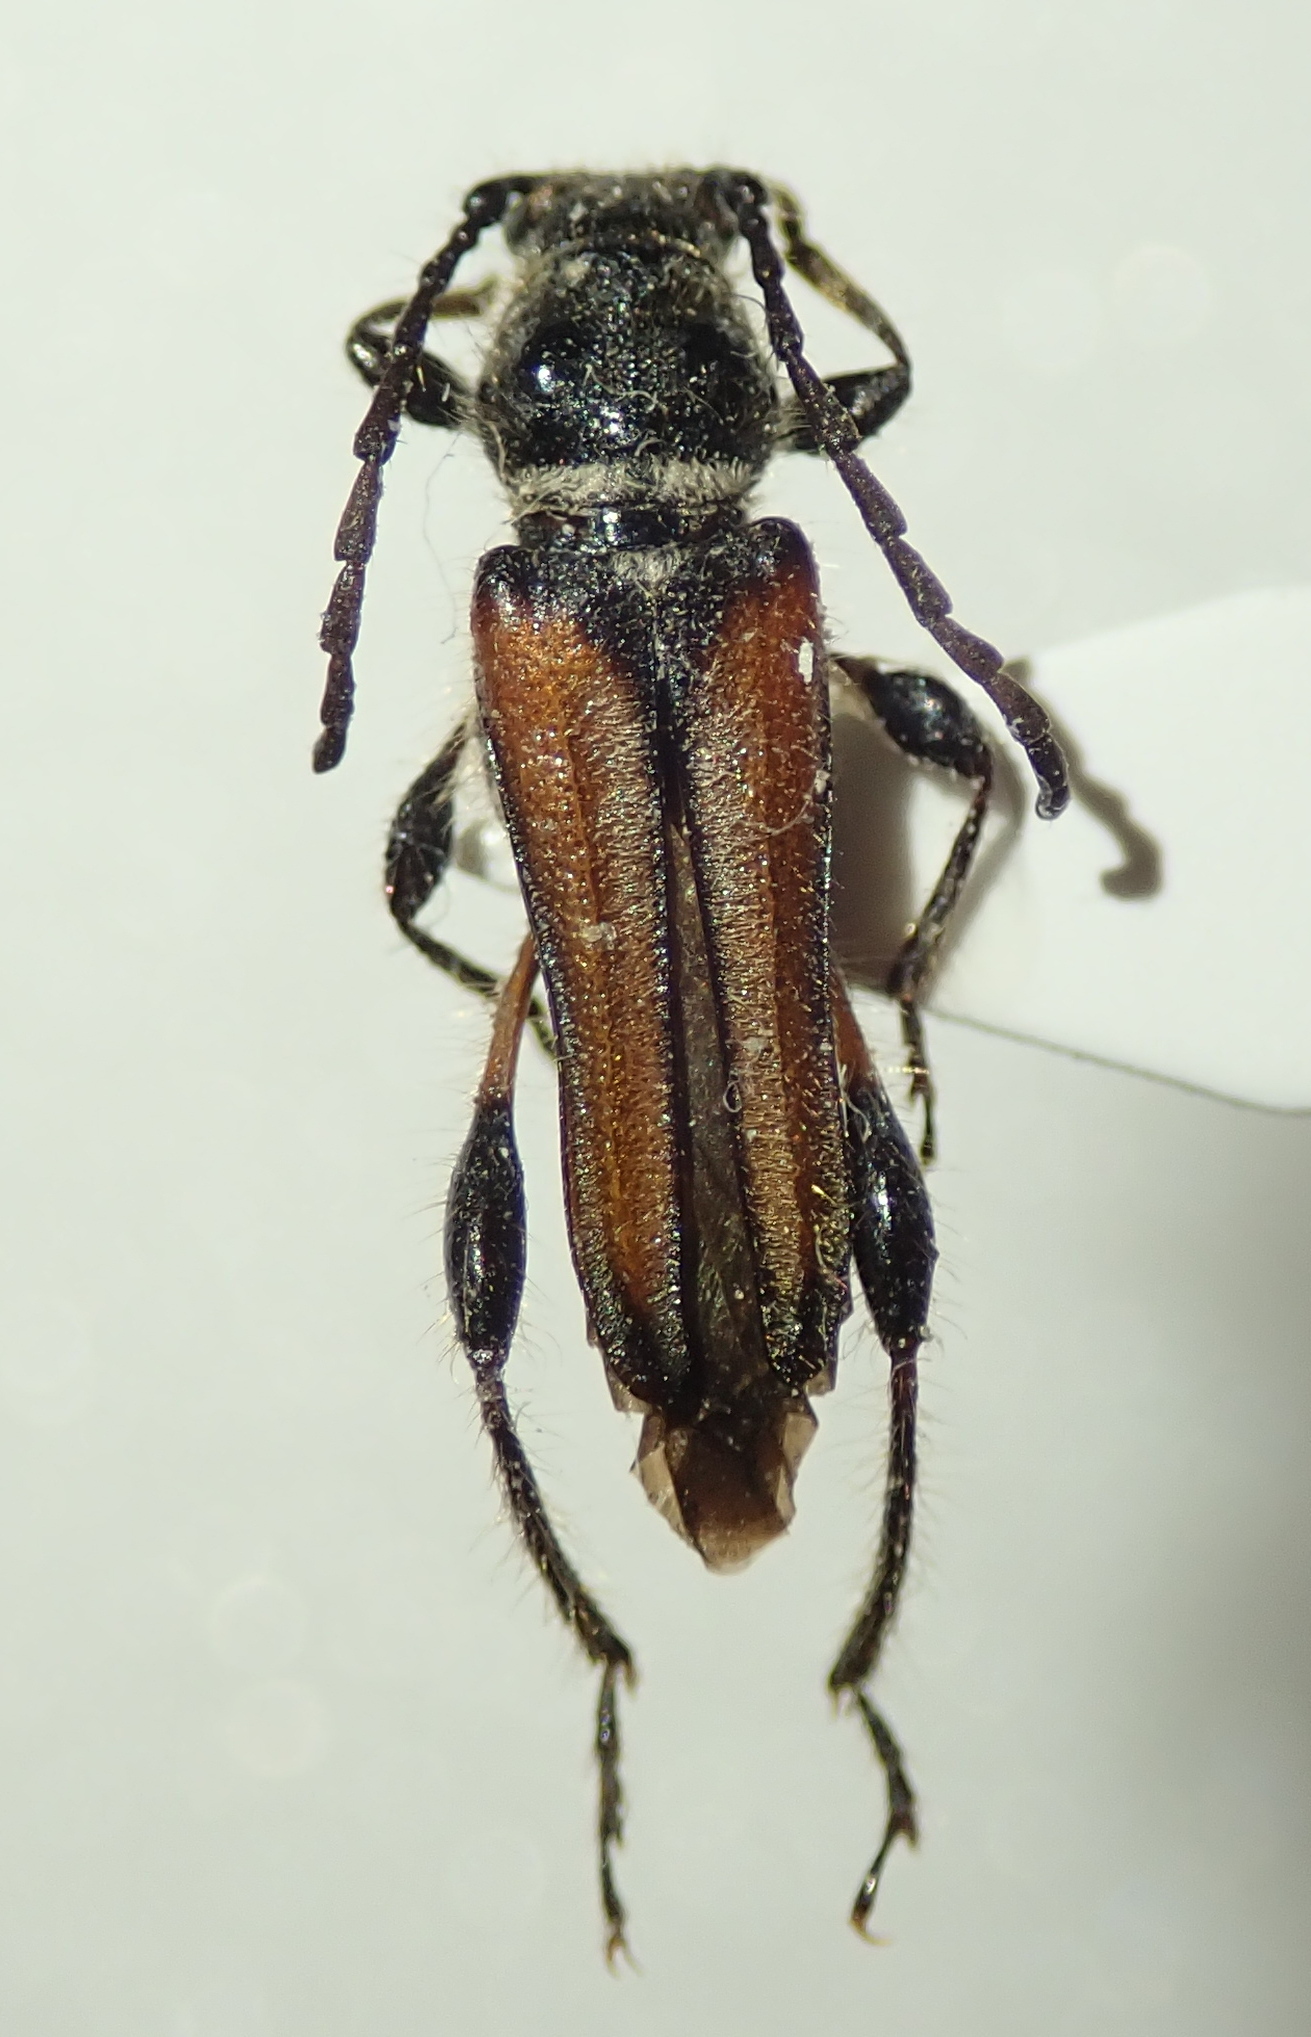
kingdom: Animalia
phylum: Arthropoda
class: Insecta
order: Coleoptera
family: Cerambycidae
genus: Stenopterus
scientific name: Stenopterus ater
